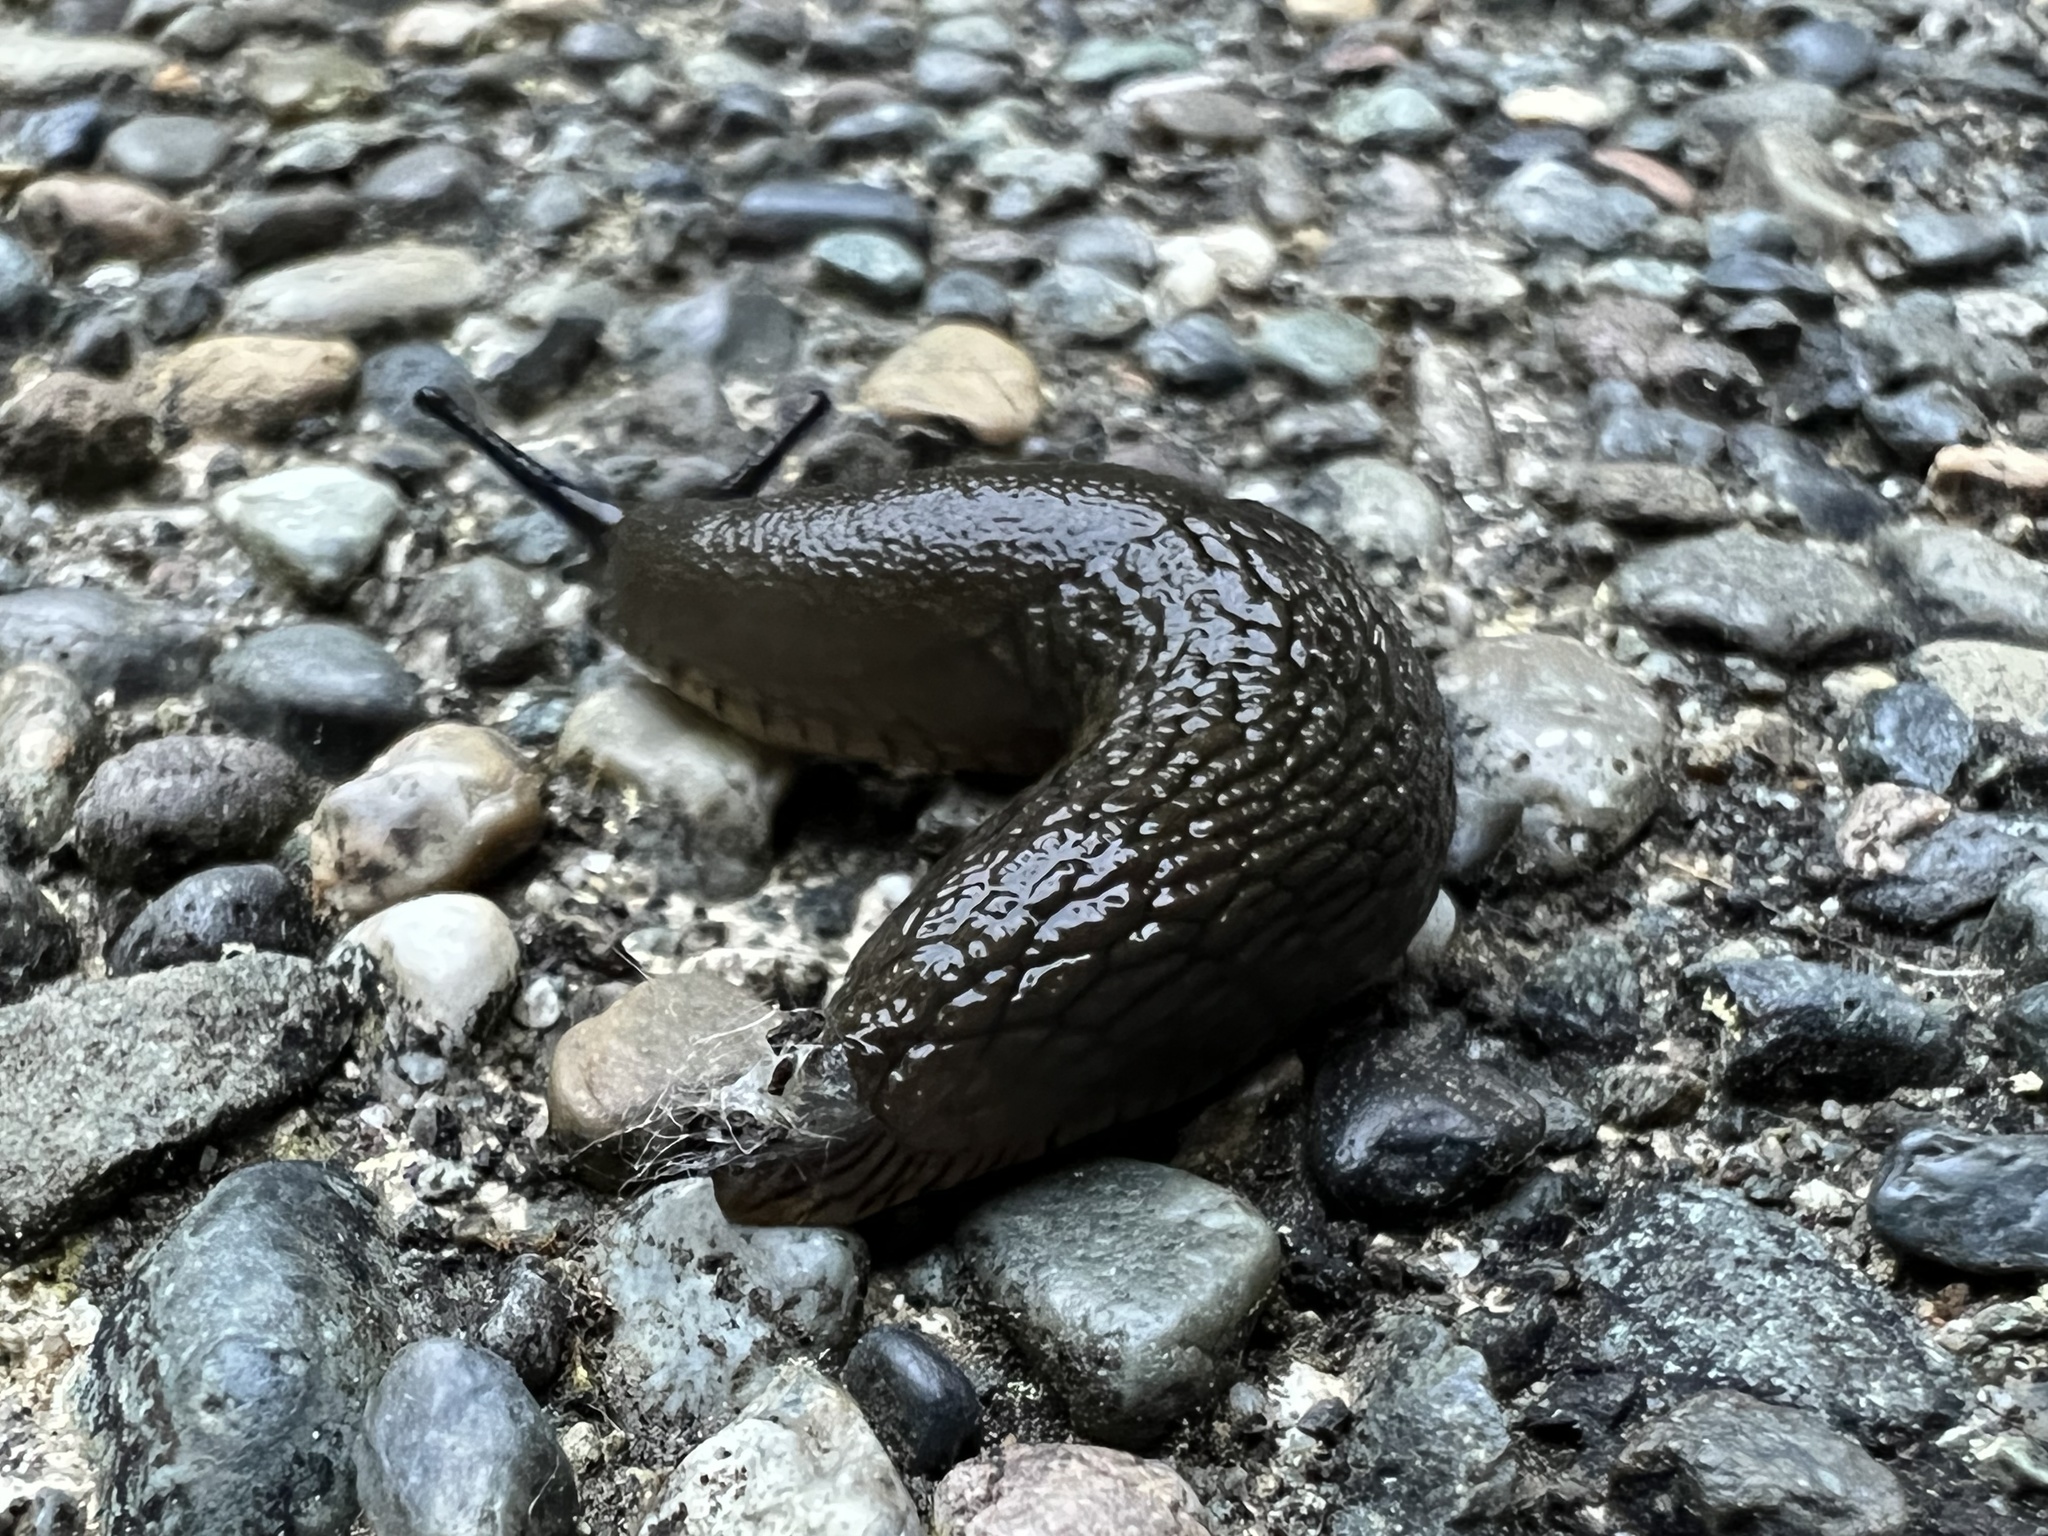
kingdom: Animalia
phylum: Mollusca
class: Gastropoda
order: Stylommatophora
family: Arionidae
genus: Arion
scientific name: Arion
